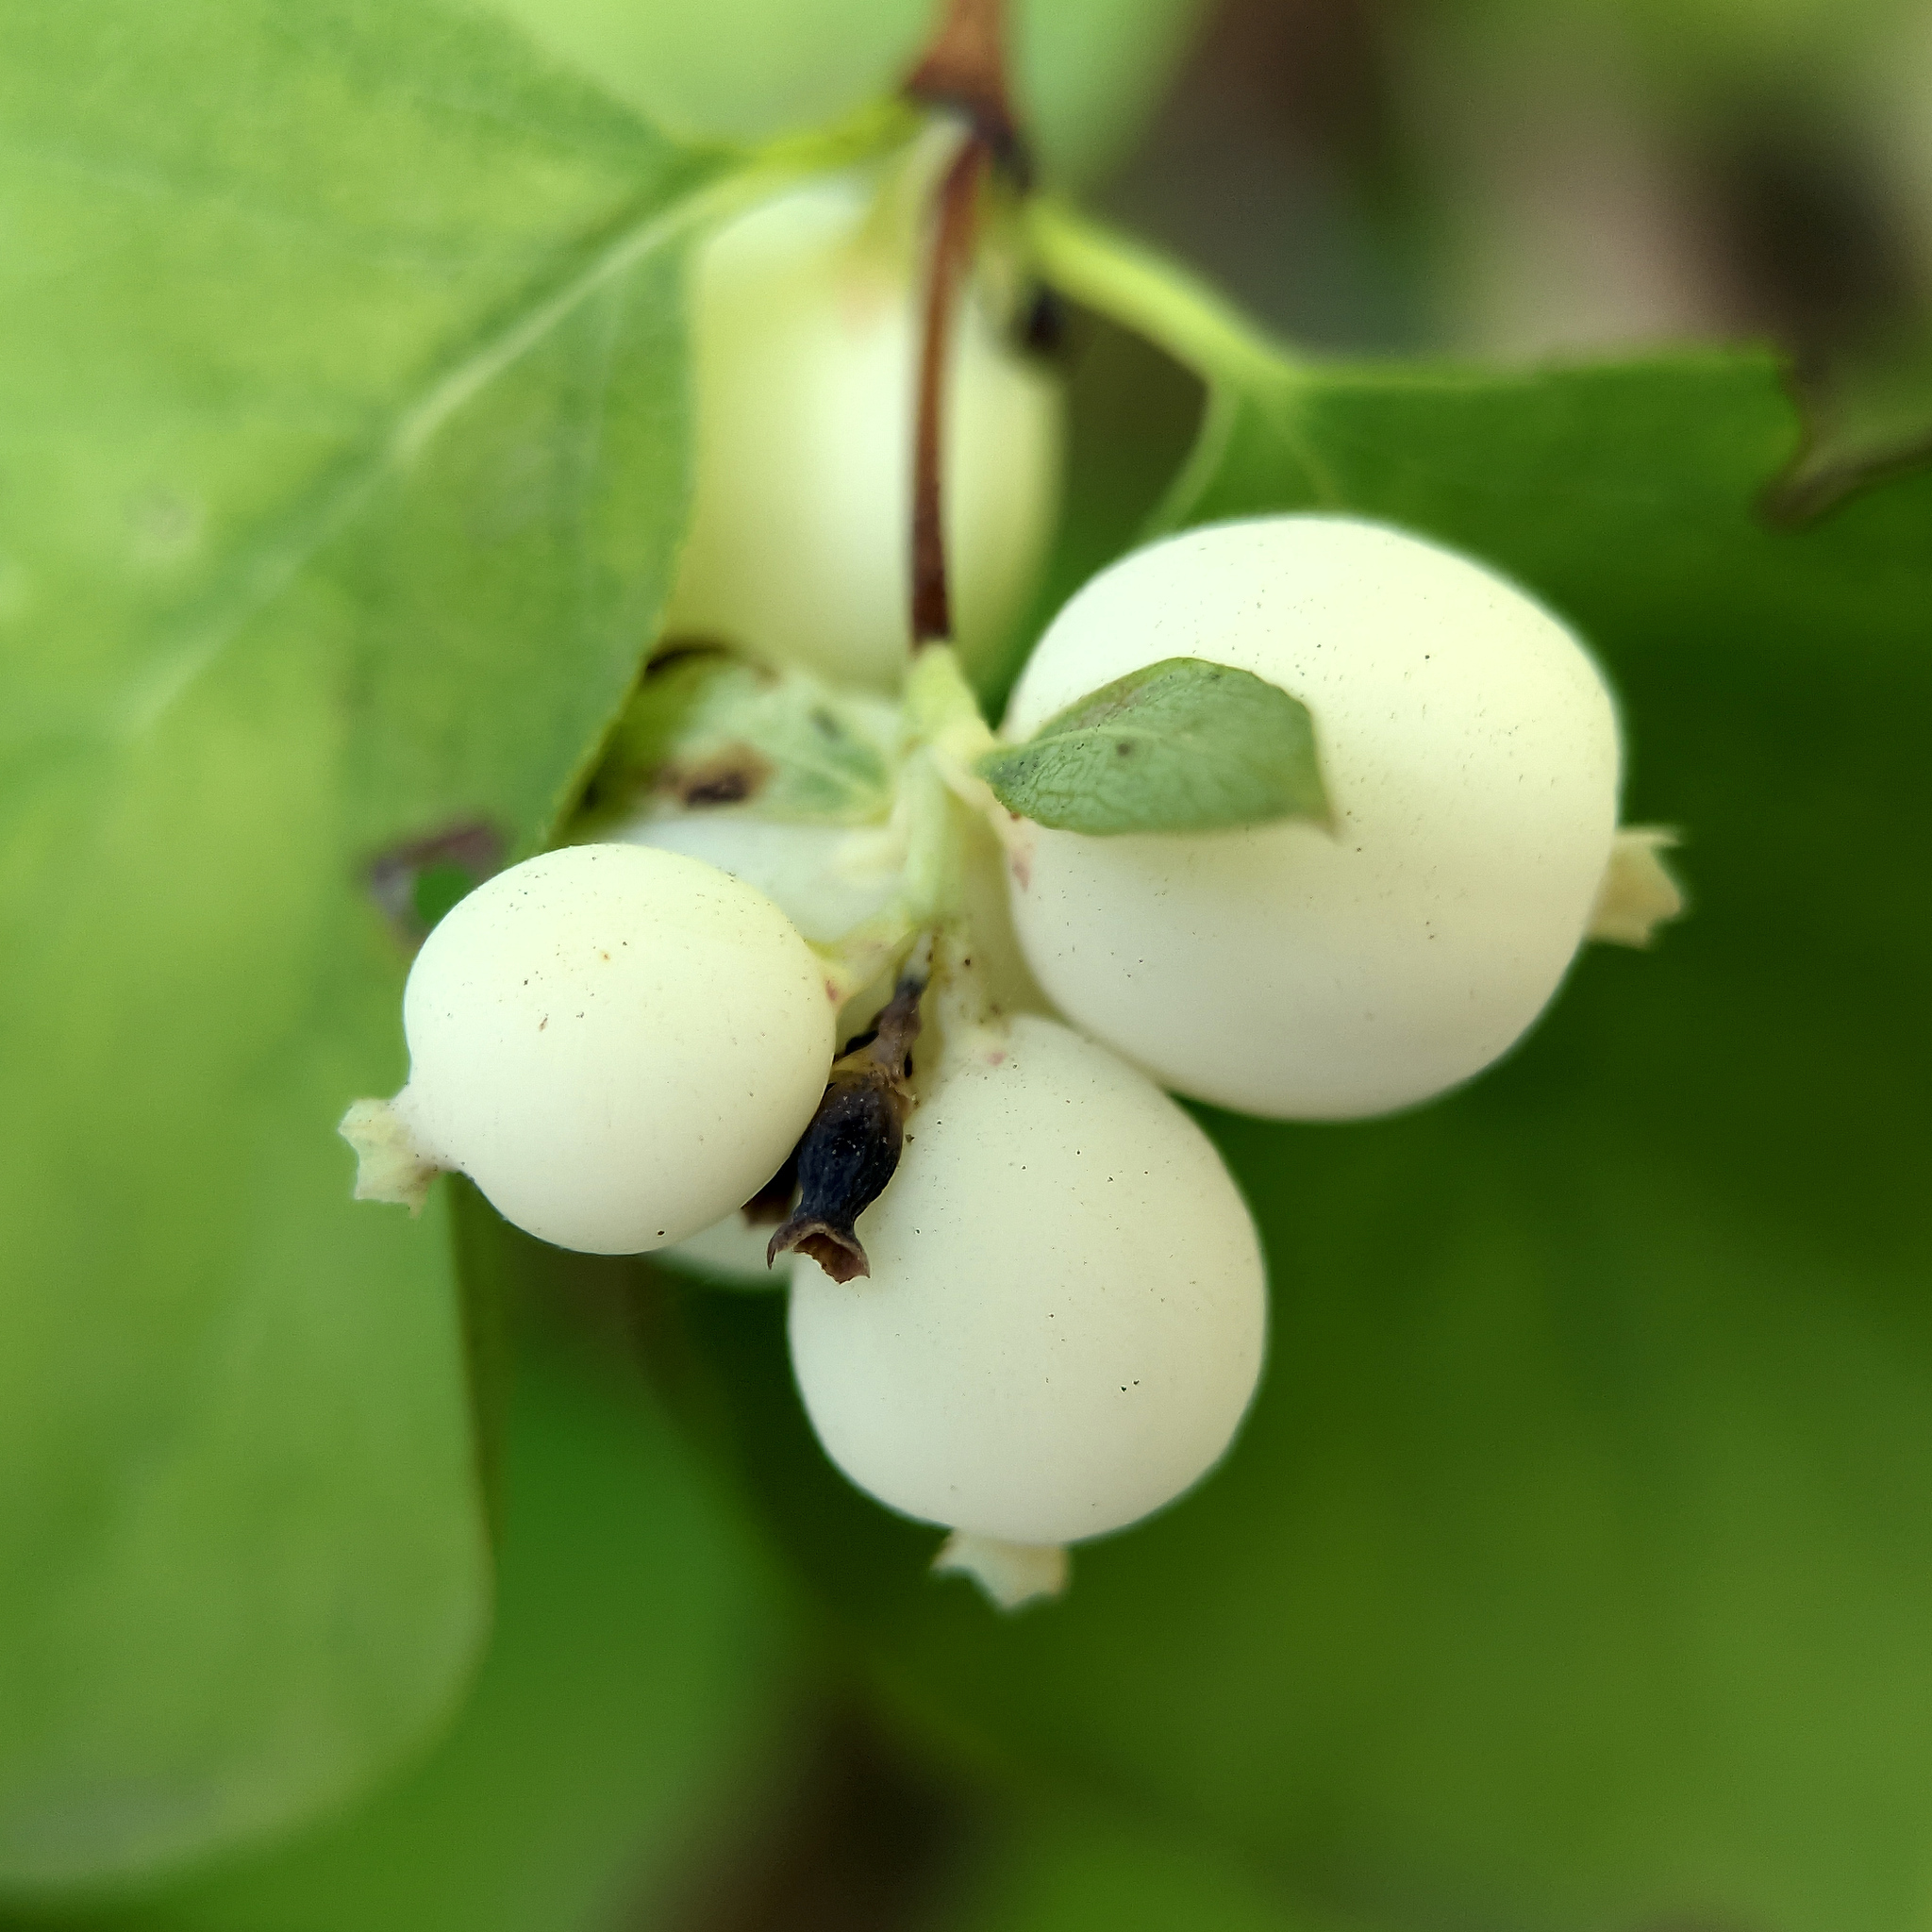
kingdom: Plantae
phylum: Tracheophyta
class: Magnoliopsida
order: Dipsacales
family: Caprifoliaceae
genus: Symphoricarpos
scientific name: Symphoricarpos albus
